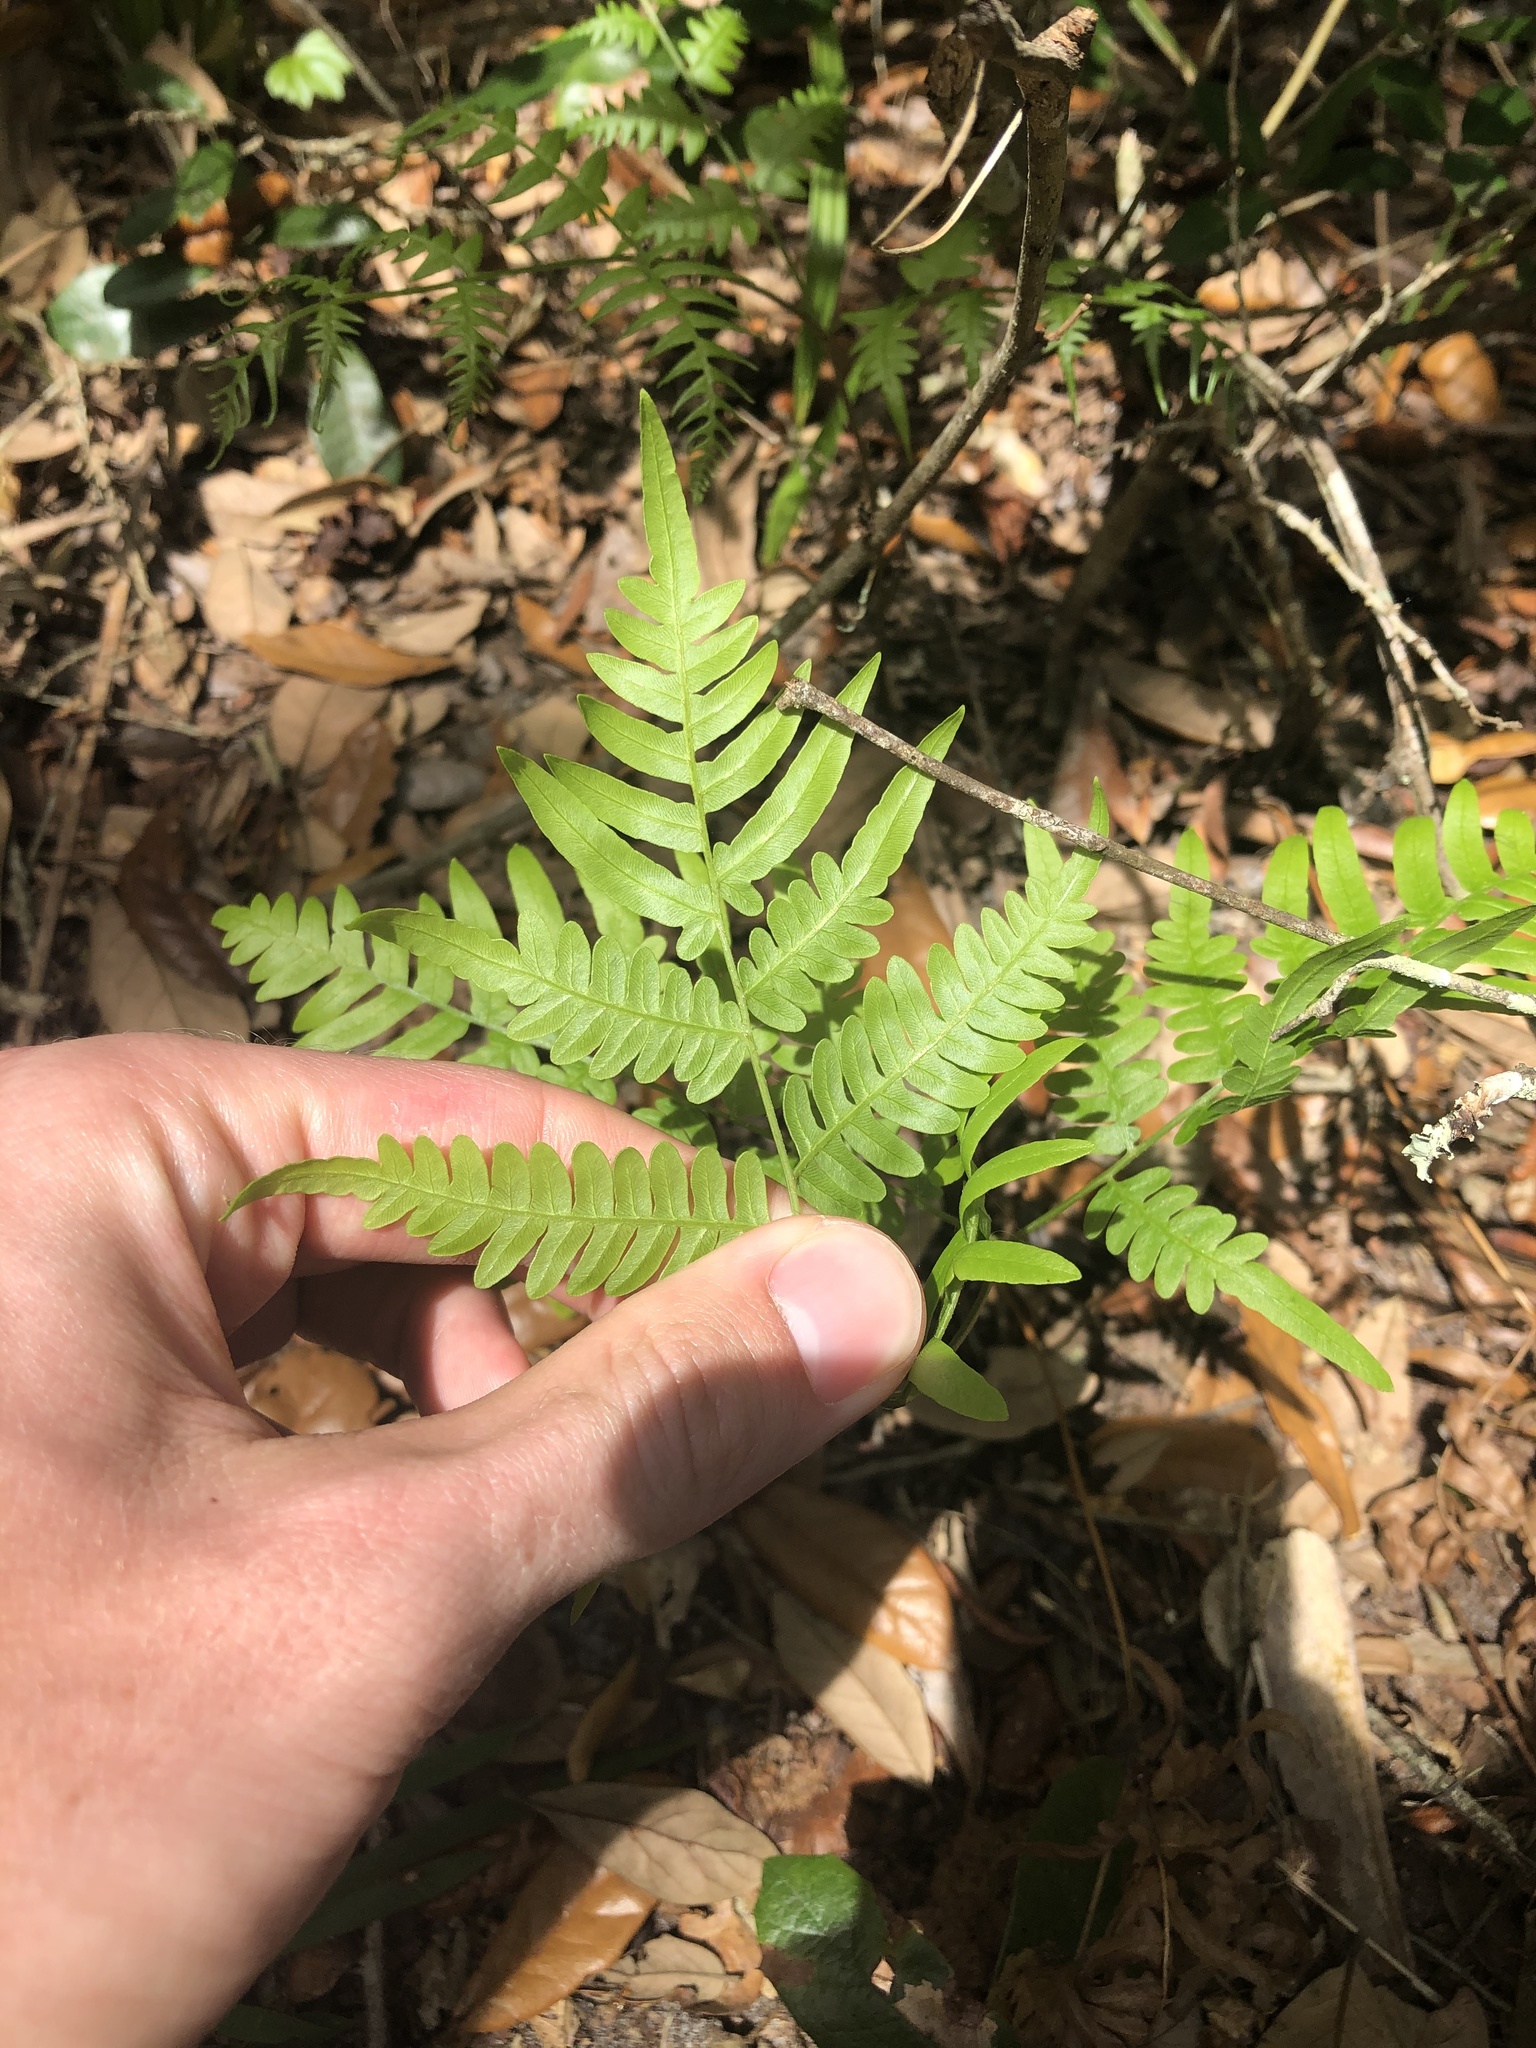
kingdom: Plantae
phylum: Tracheophyta
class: Polypodiopsida
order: Polypodiales
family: Dennstaedtiaceae
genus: Pteridium
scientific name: Pteridium
